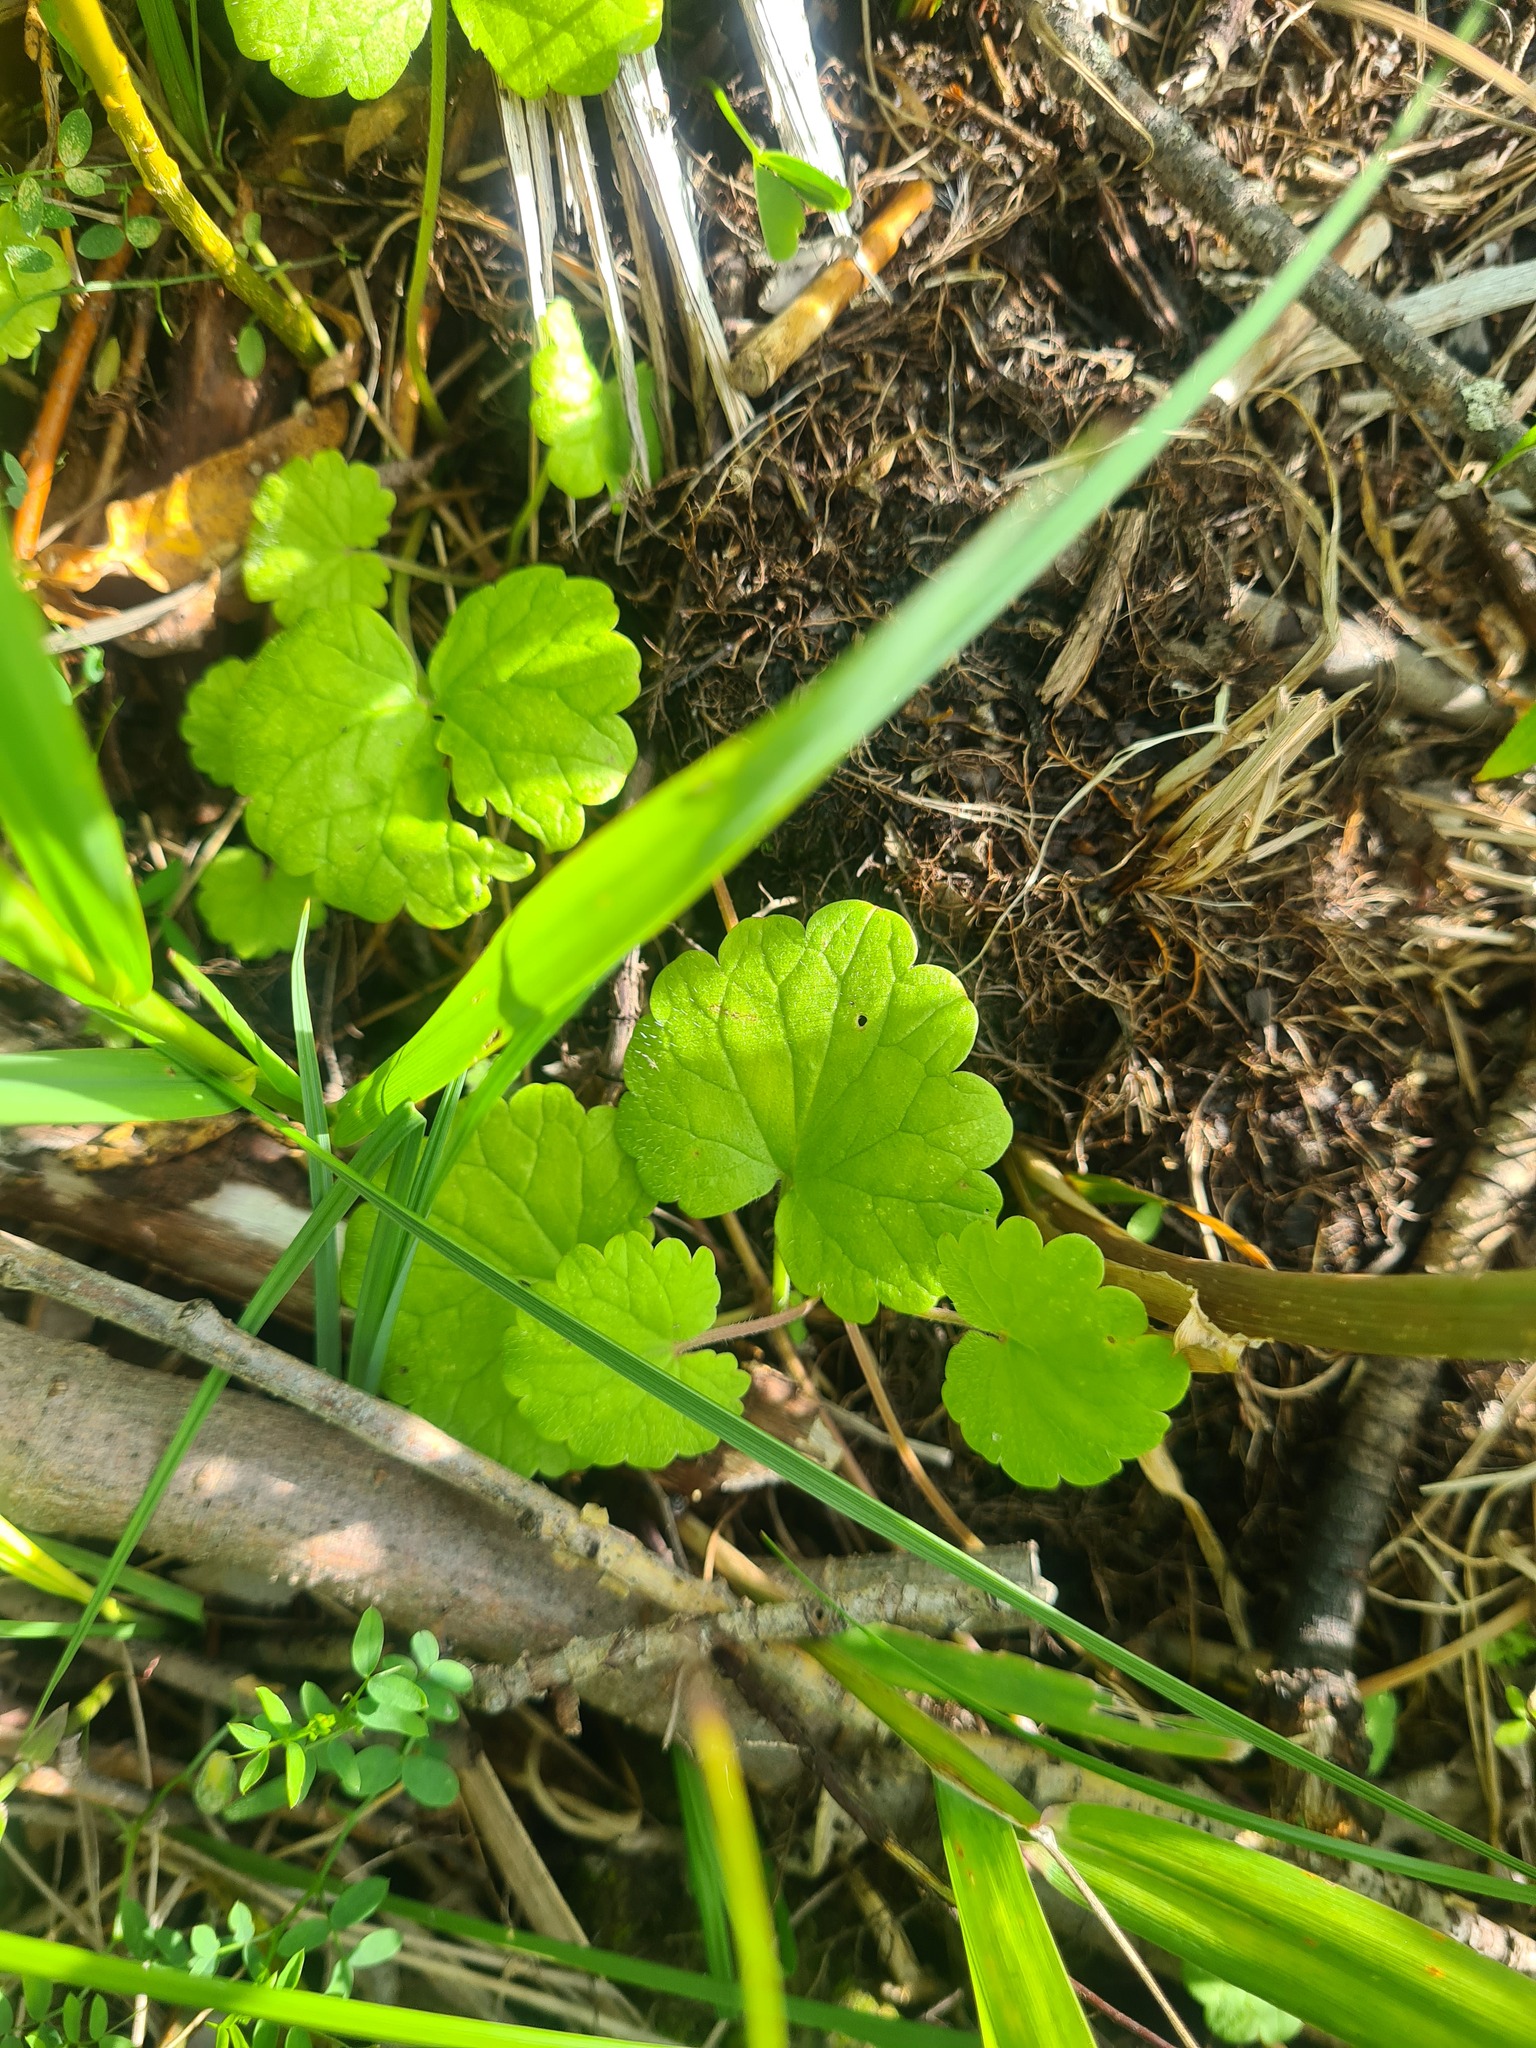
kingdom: Plantae
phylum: Tracheophyta
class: Magnoliopsida
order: Lamiales
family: Lamiaceae
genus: Glechoma
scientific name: Glechoma hederacea
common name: Ground ivy
